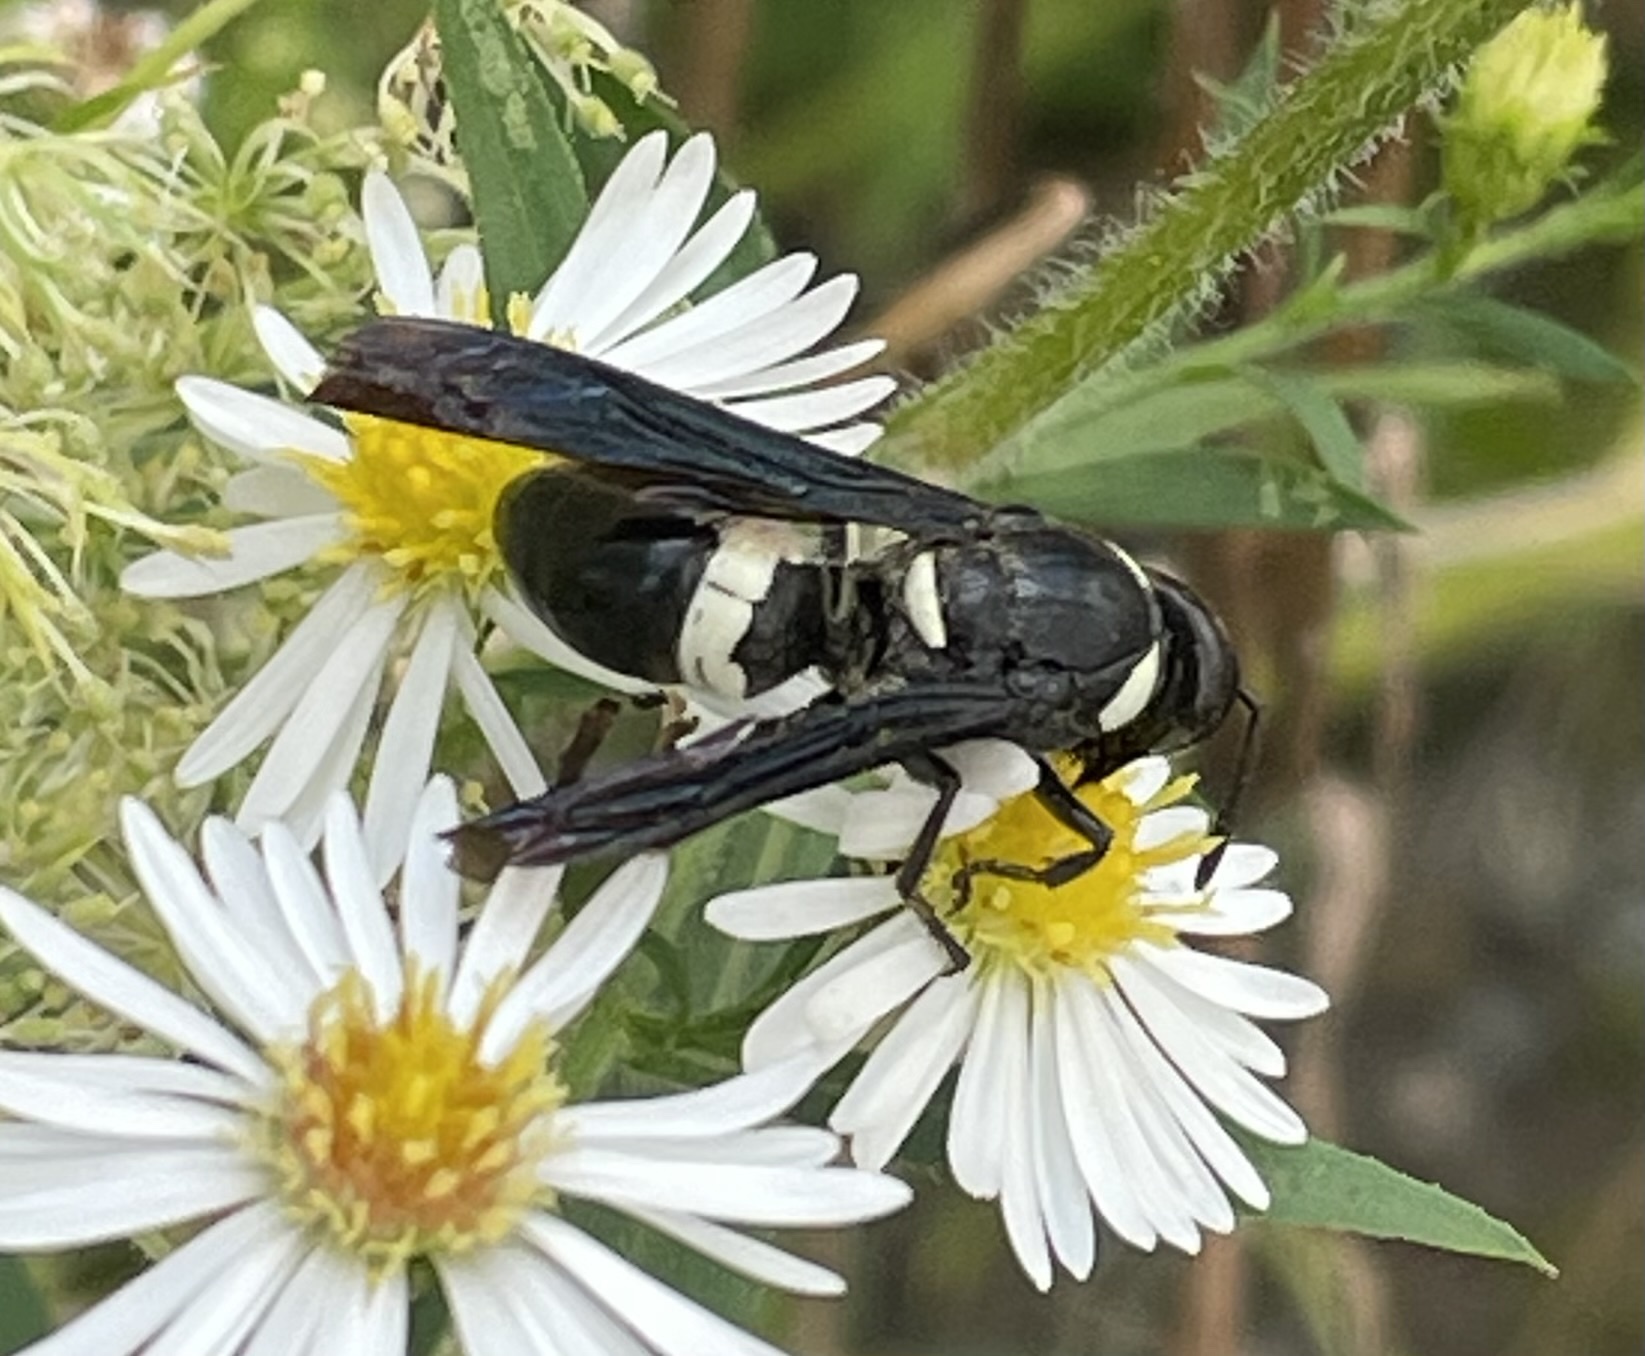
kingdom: Animalia
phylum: Arthropoda
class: Insecta
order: Hymenoptera
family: Eumenidae
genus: Monobia
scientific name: Monobia quadridens
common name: Four-toothed mason wasp
